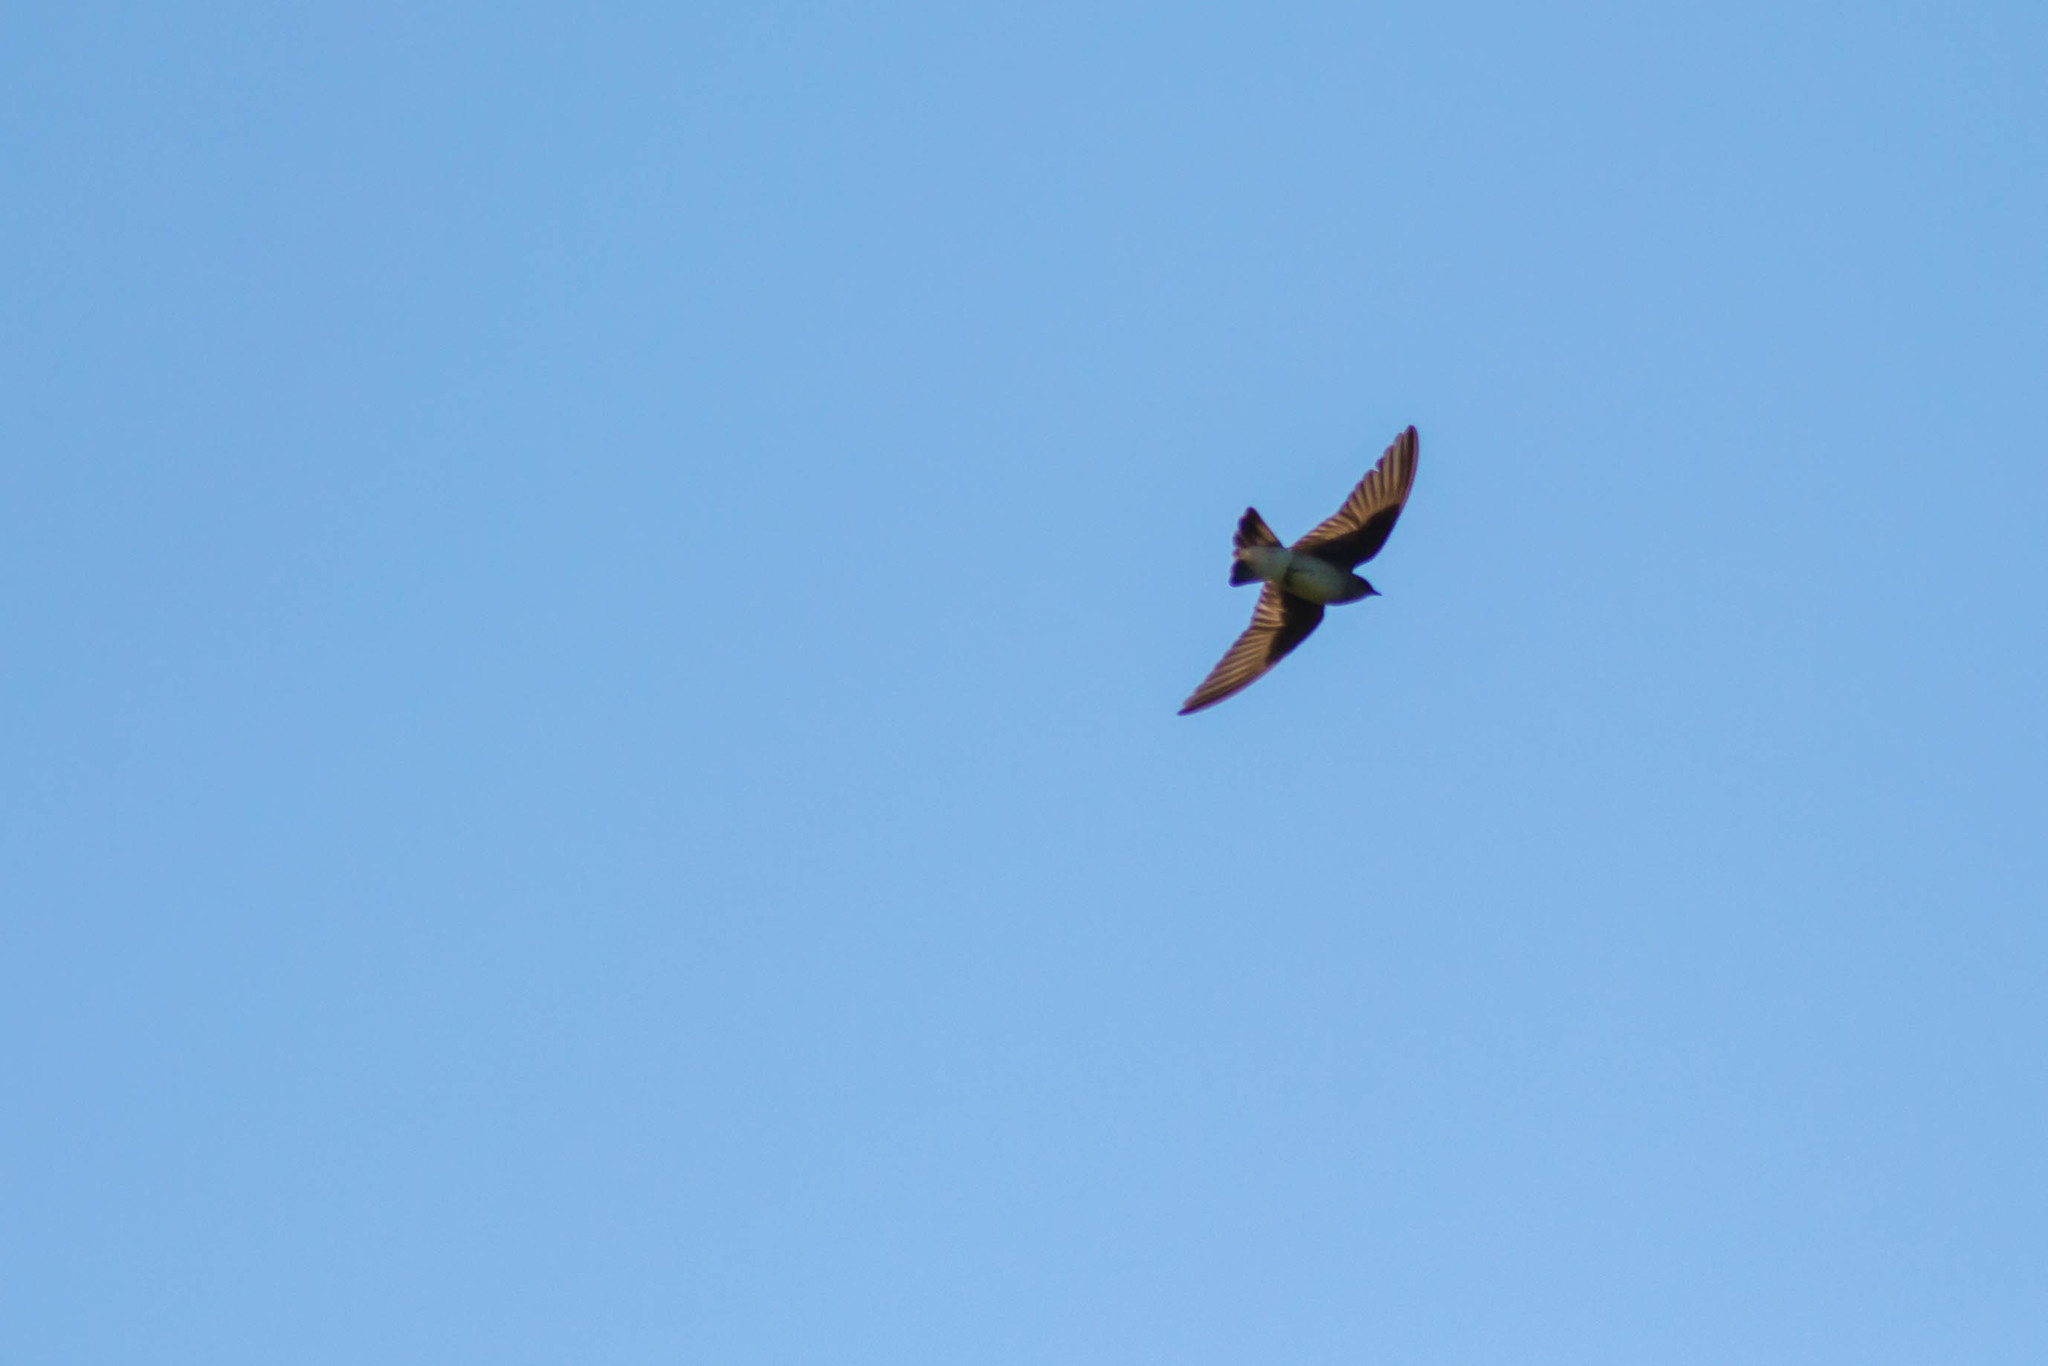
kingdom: Animalia
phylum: Chordata
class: Aves
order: Passeriformes
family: Hirundinidae
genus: Stelgidopteryx
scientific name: Stelgidopteryx serripennis
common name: Northern rough-winged swallow
